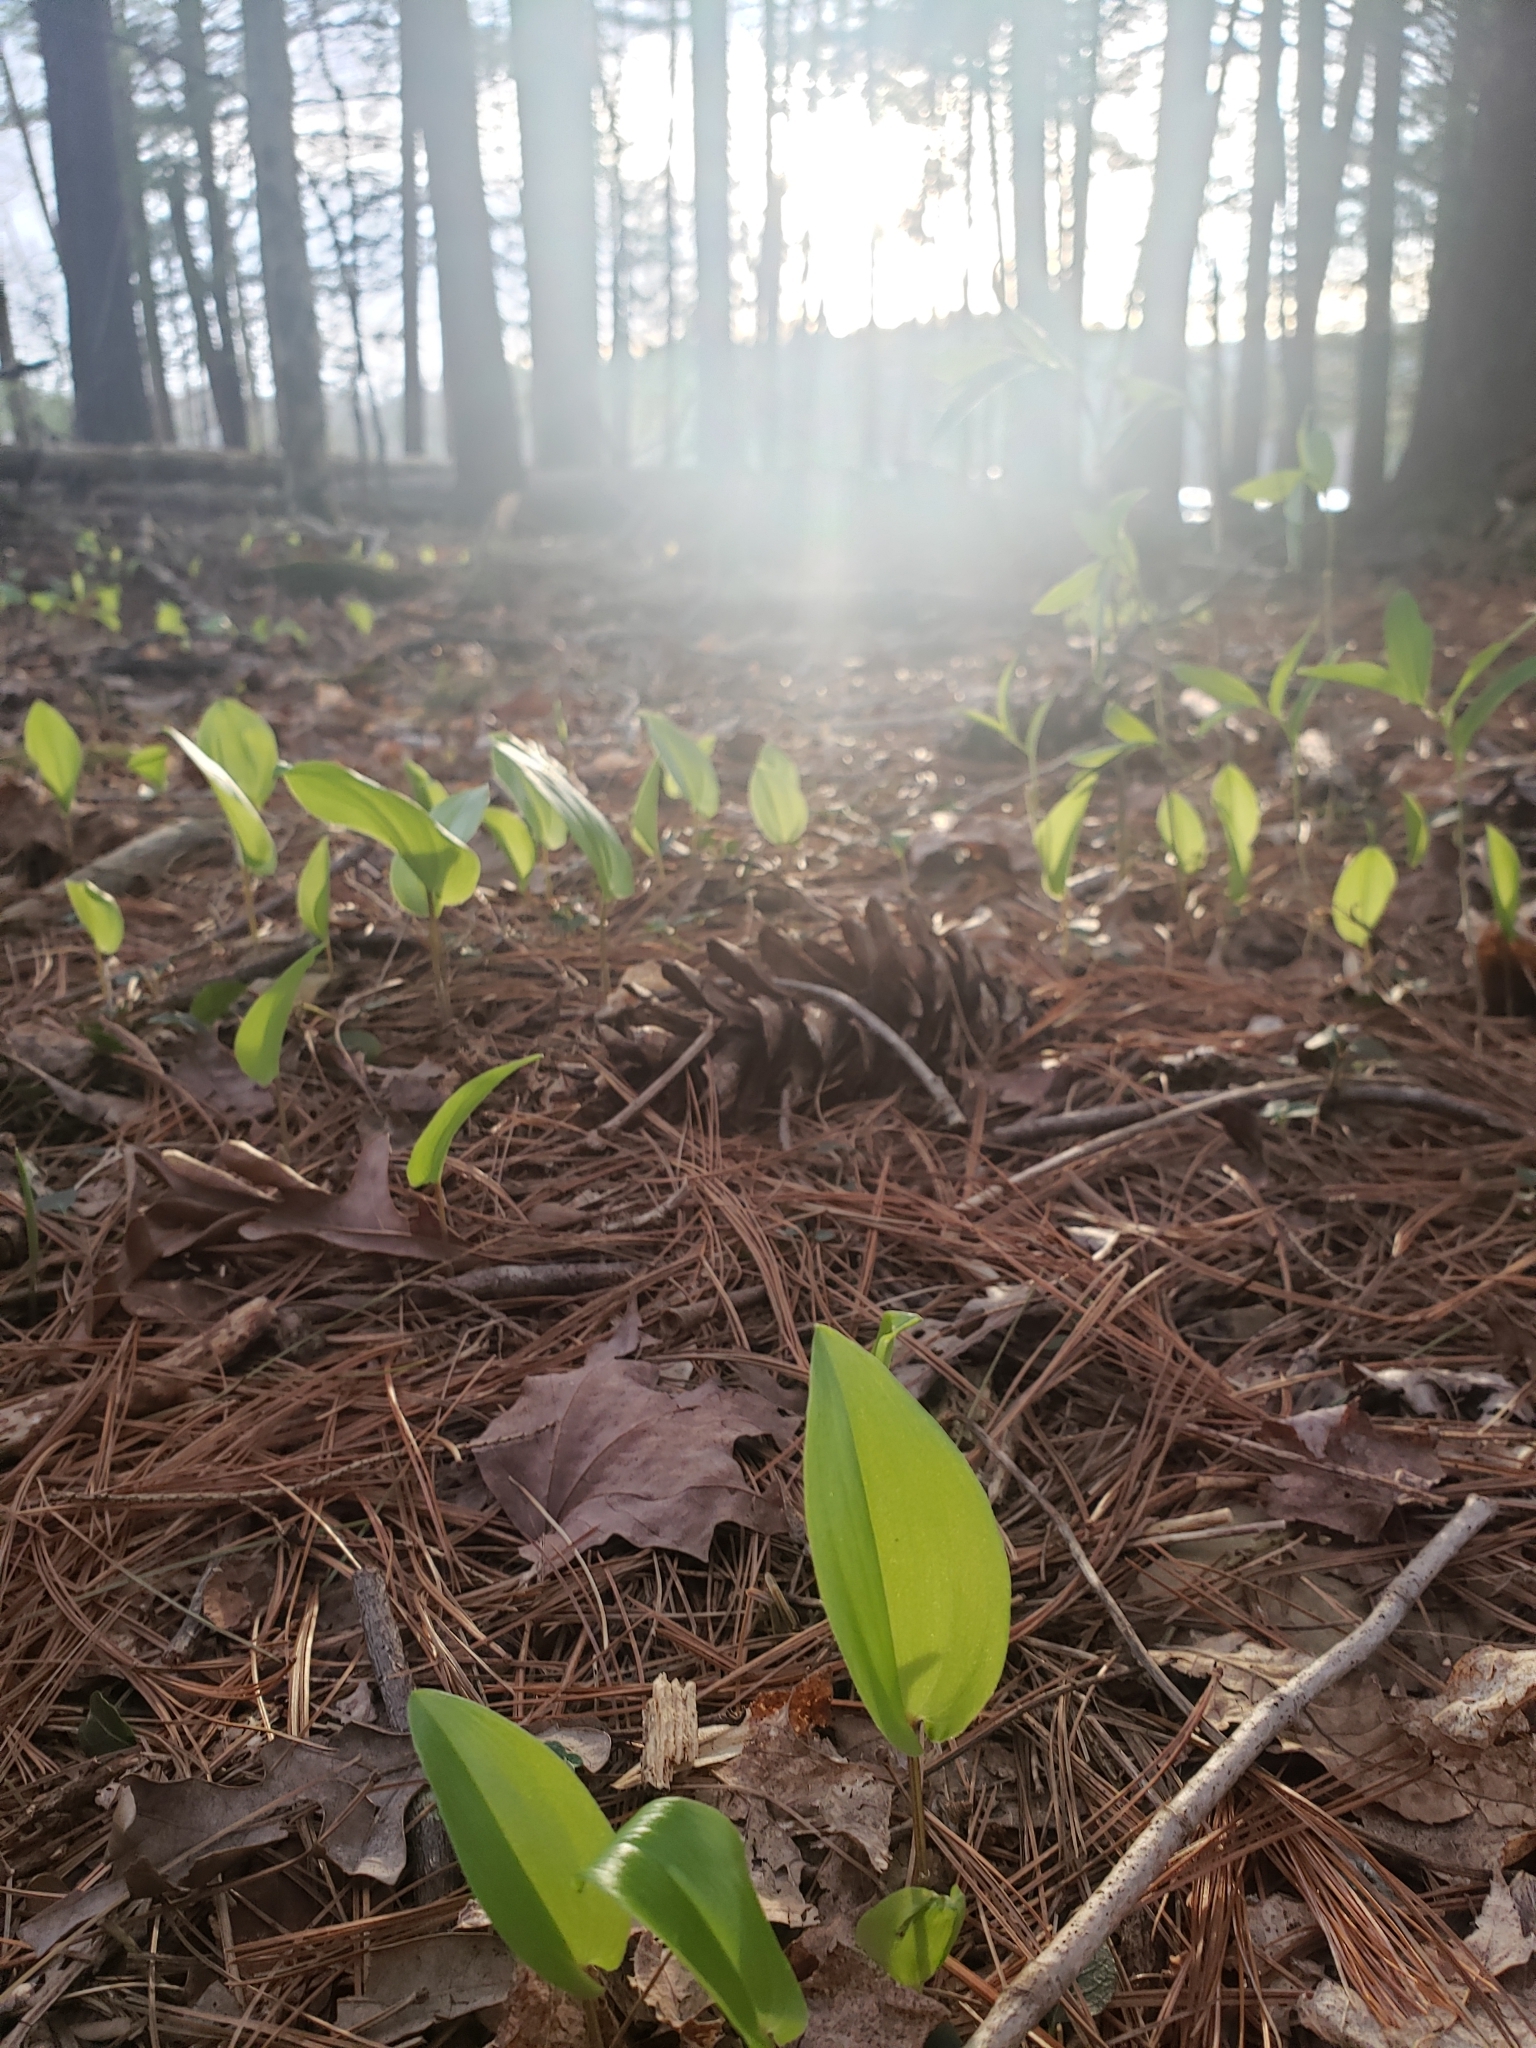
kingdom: Plantae
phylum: Tracheophyta
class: Liliopsida
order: Asparagales
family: Asparagaceae
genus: Maianthemum
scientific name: Maianthemum canadense
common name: False lily-of-the-valley
